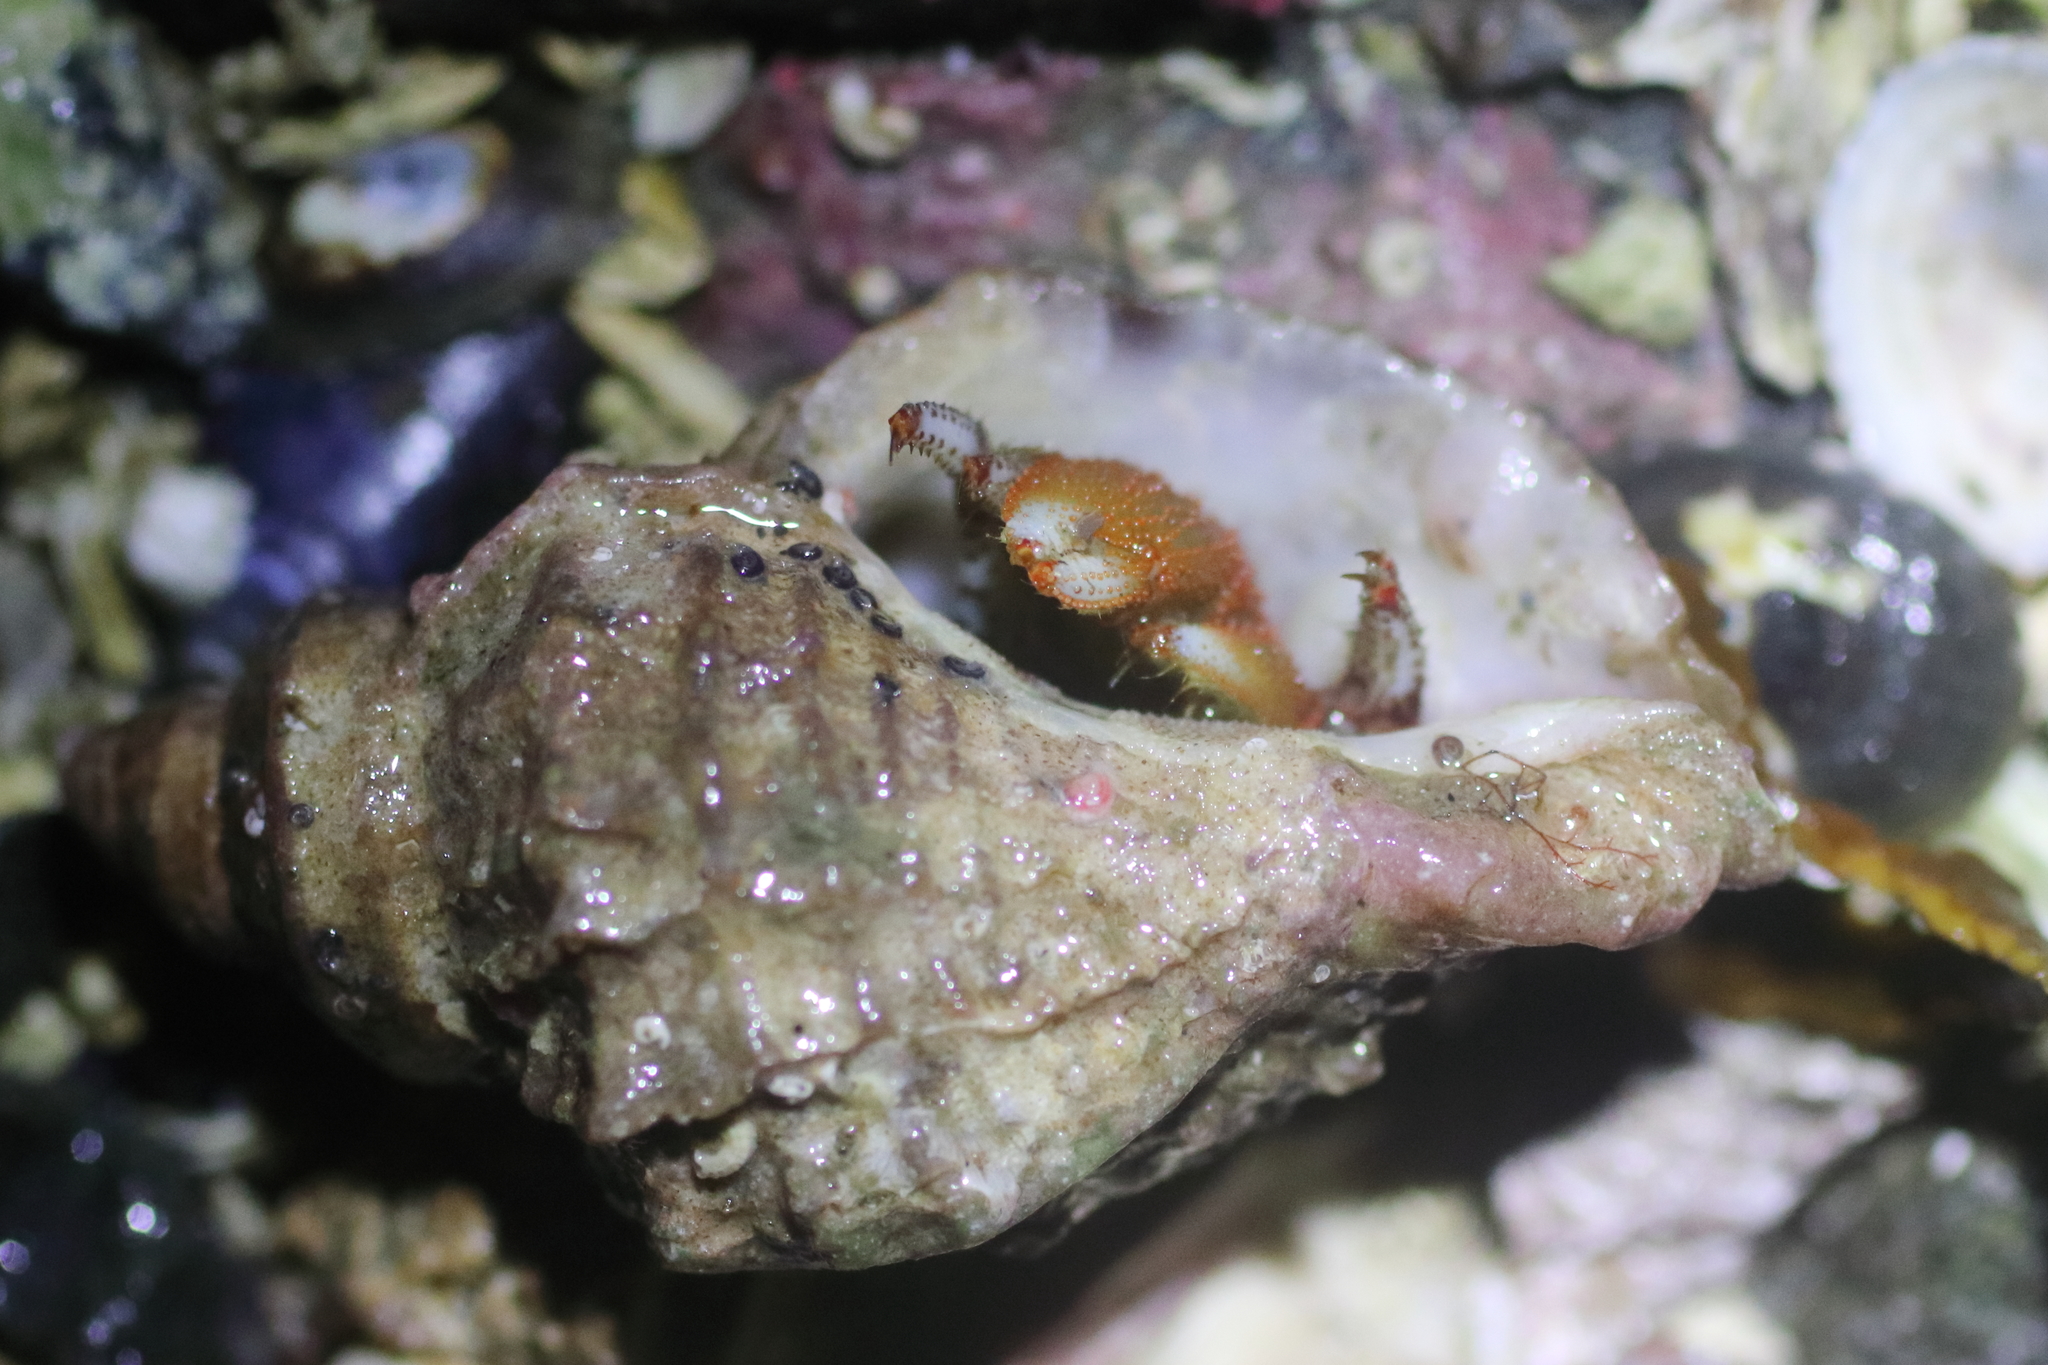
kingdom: Animalia
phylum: Arthropoda
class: Malacostraca
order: Decapoda
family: Paguridae
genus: Pagurus
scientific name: Pagurus beringanus
